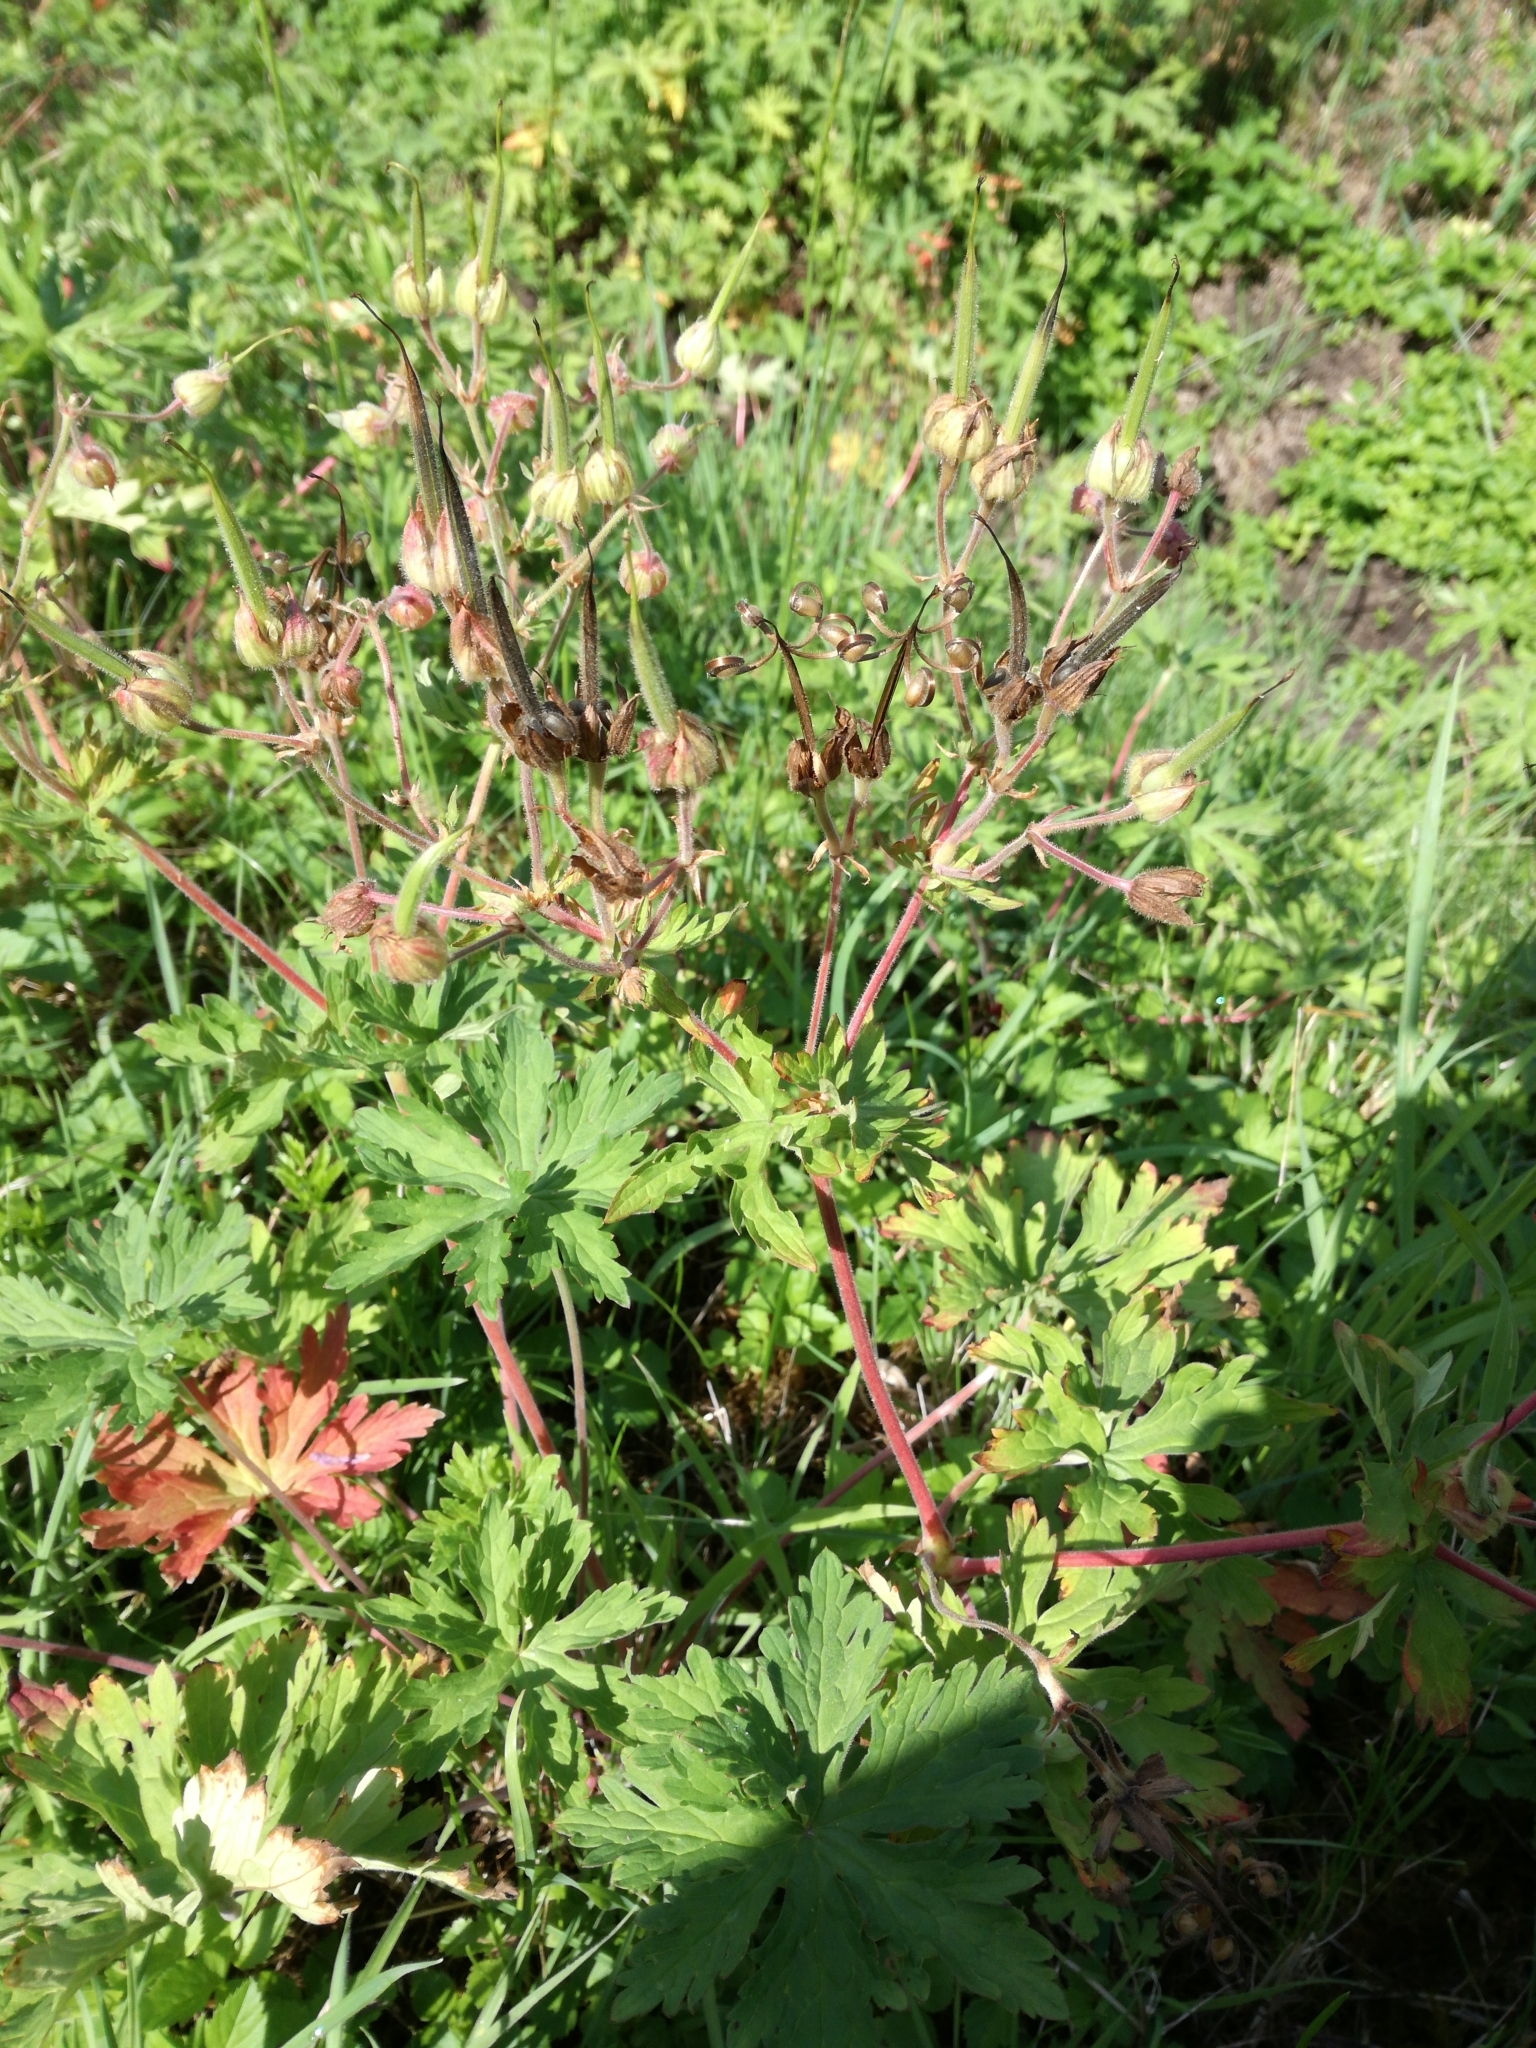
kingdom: Plantae
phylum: Tracheophyta
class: Magnoliopsida
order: Geraniales
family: Geraniaceae
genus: Geranium
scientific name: Geranium pratense
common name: Meadow crane's-bill
